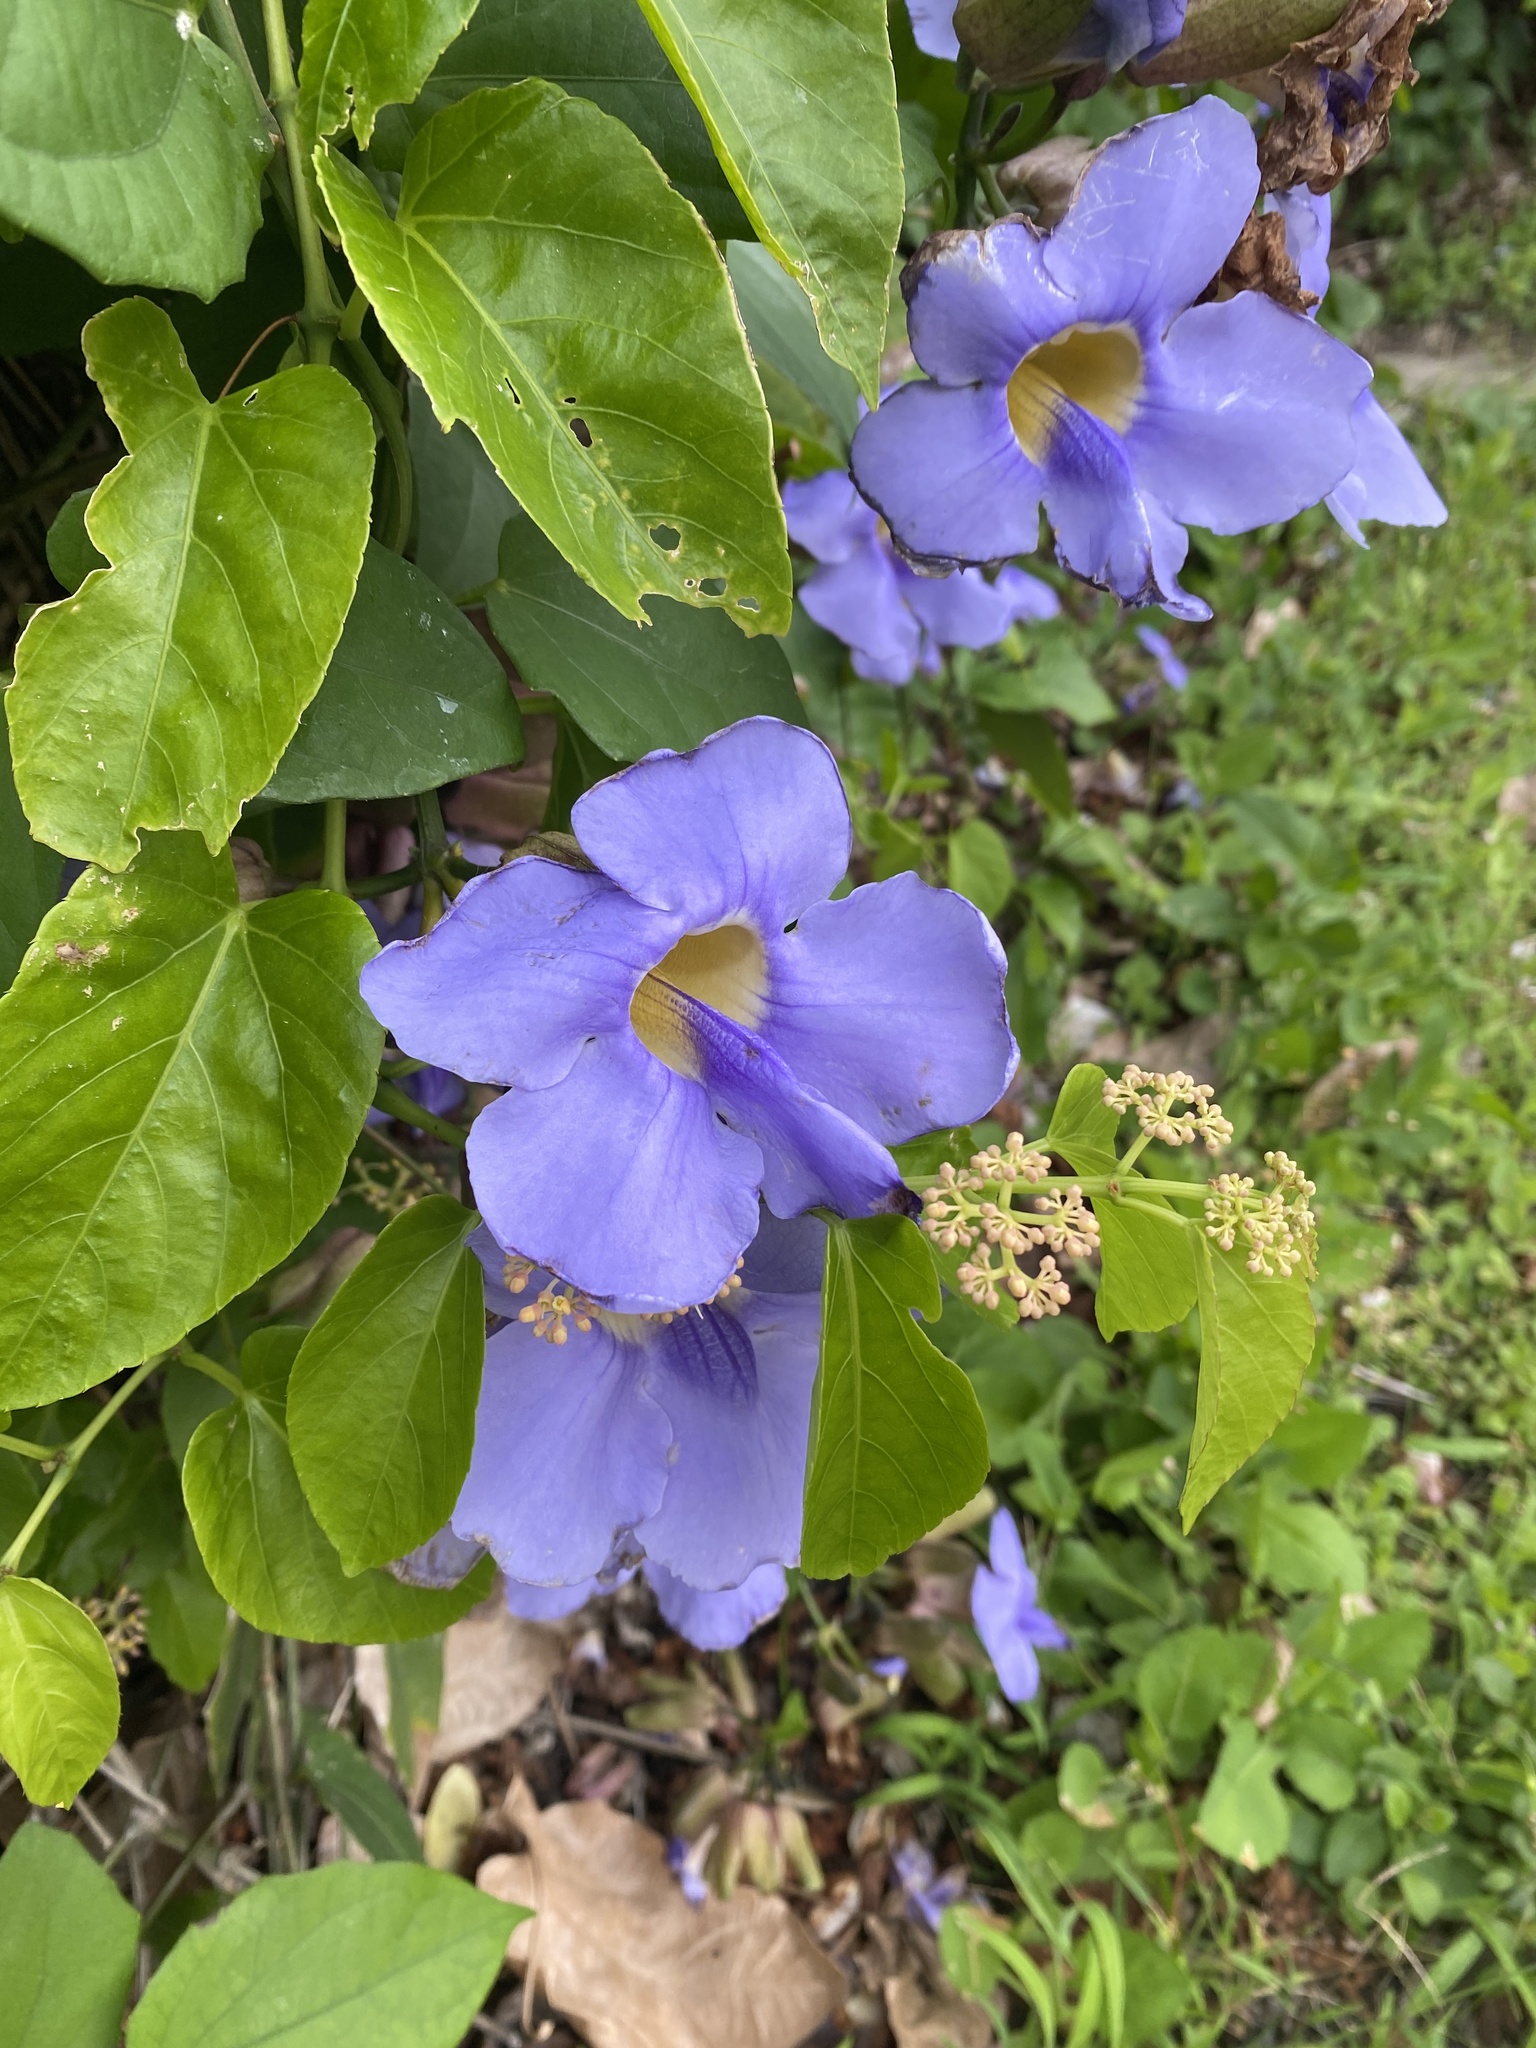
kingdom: Plantae
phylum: Tracheophyta
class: Magnoliopsida
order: Lamiales
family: Acanthaceae
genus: Thunbergia
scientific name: Thunbergia grandiflora
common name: Bengal trumpet
